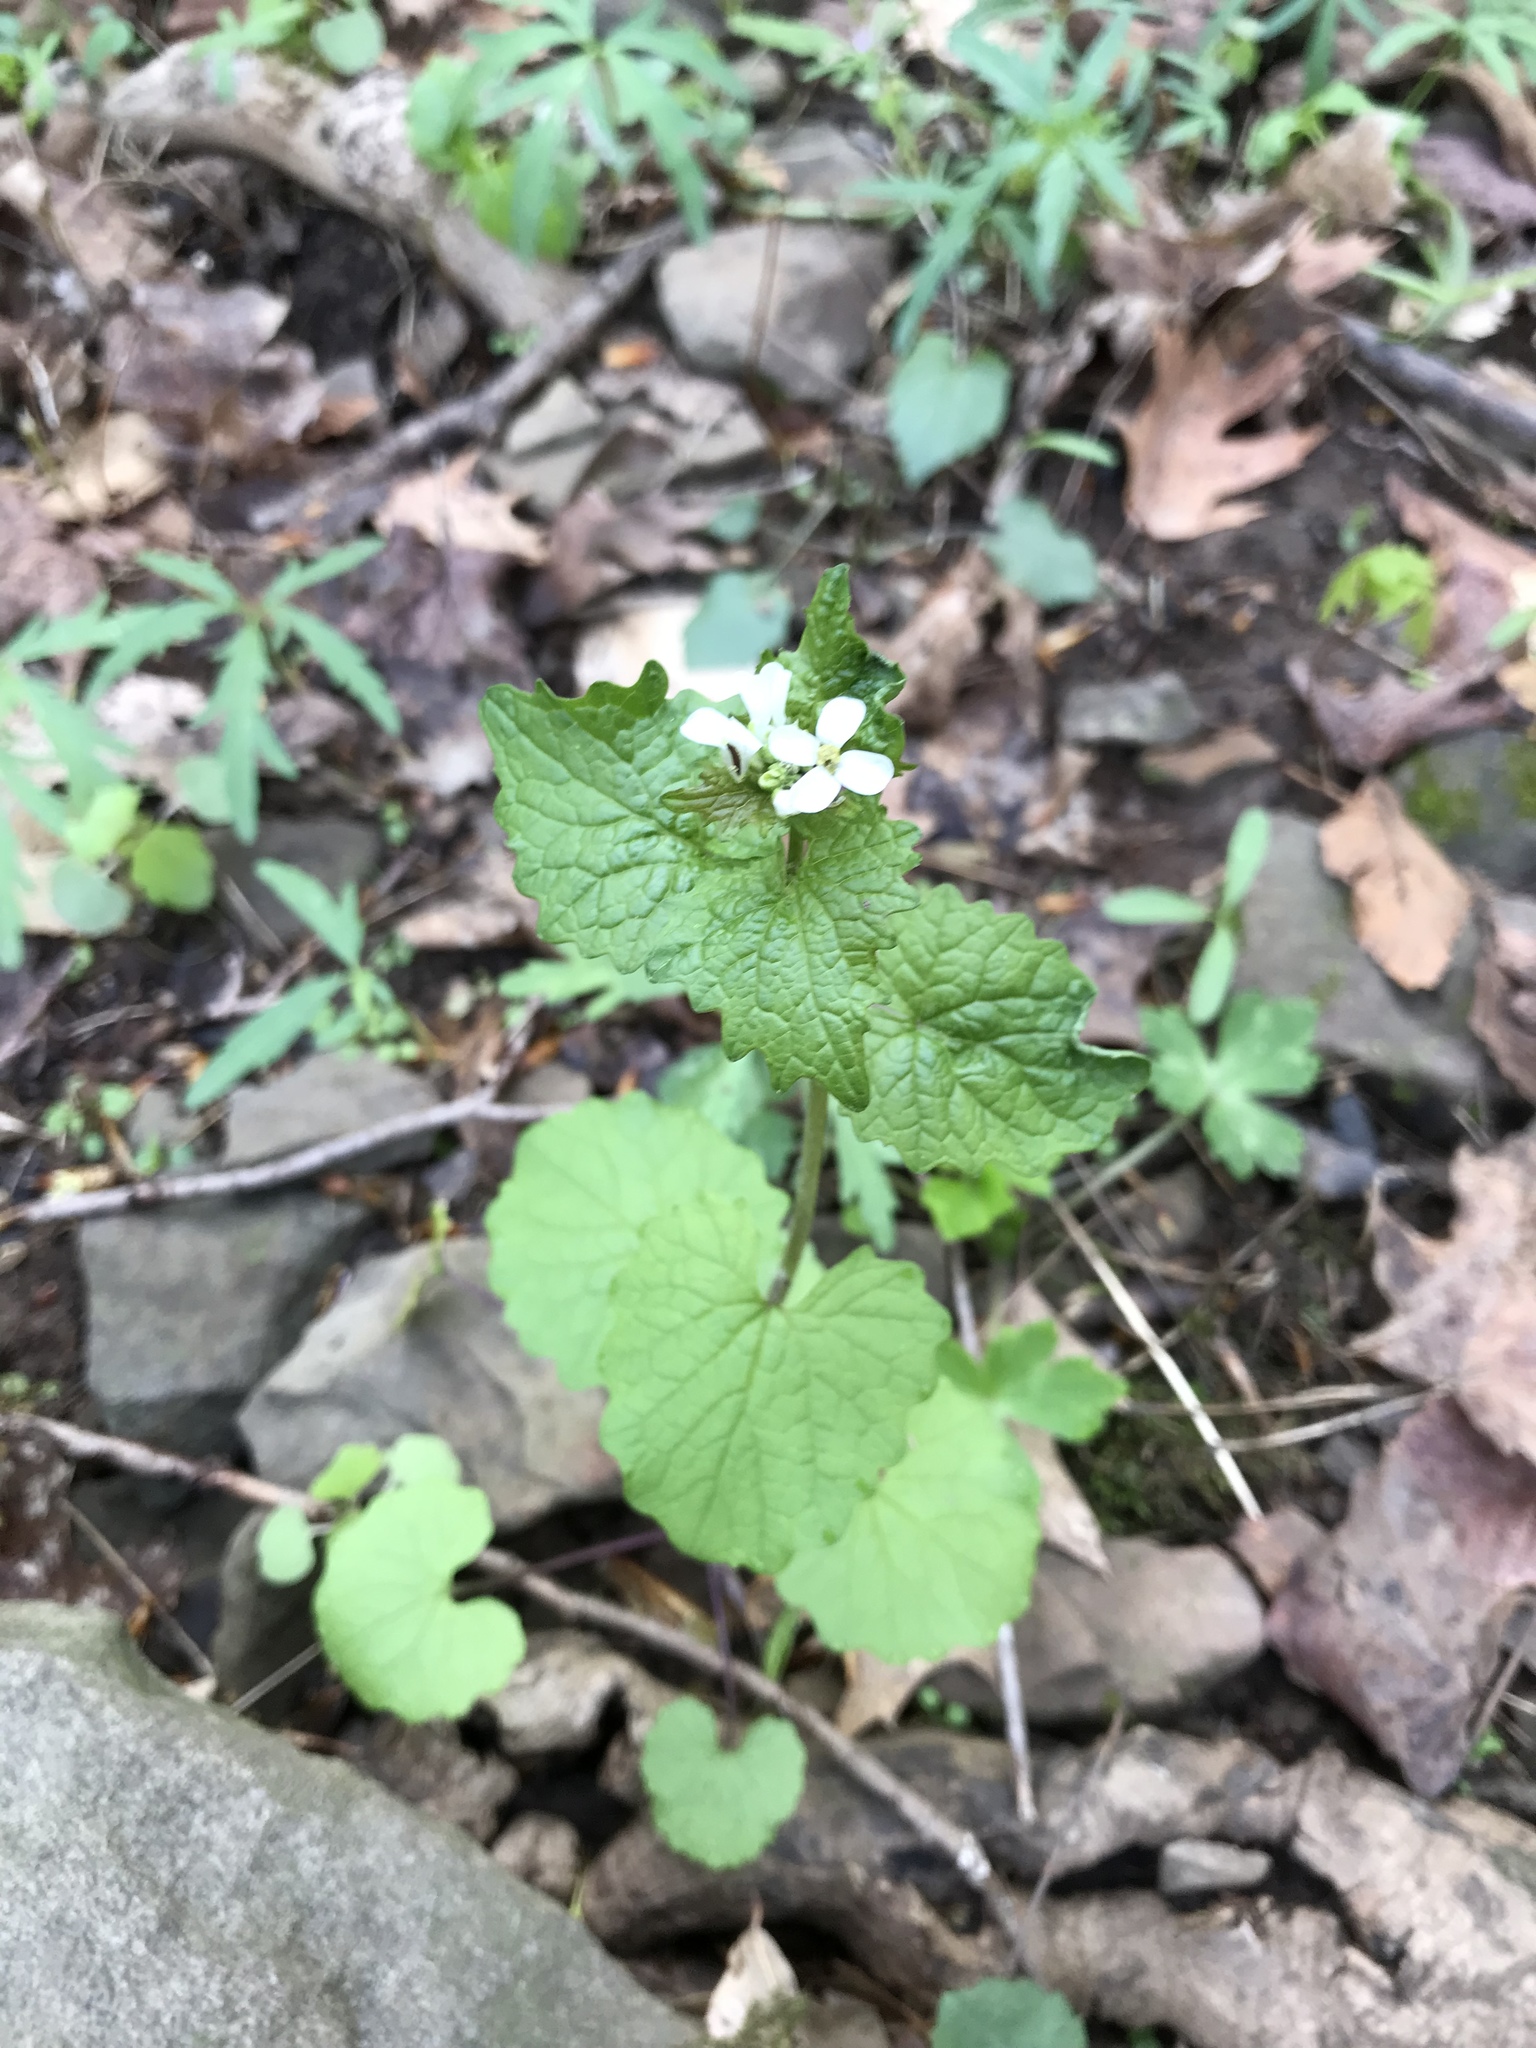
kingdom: Plantae
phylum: Tracheophyta
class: Magnoliopsida
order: Brassicales
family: Brassicaceae
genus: Alliaria
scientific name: Alliaria petiolata
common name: Garlic mustard
